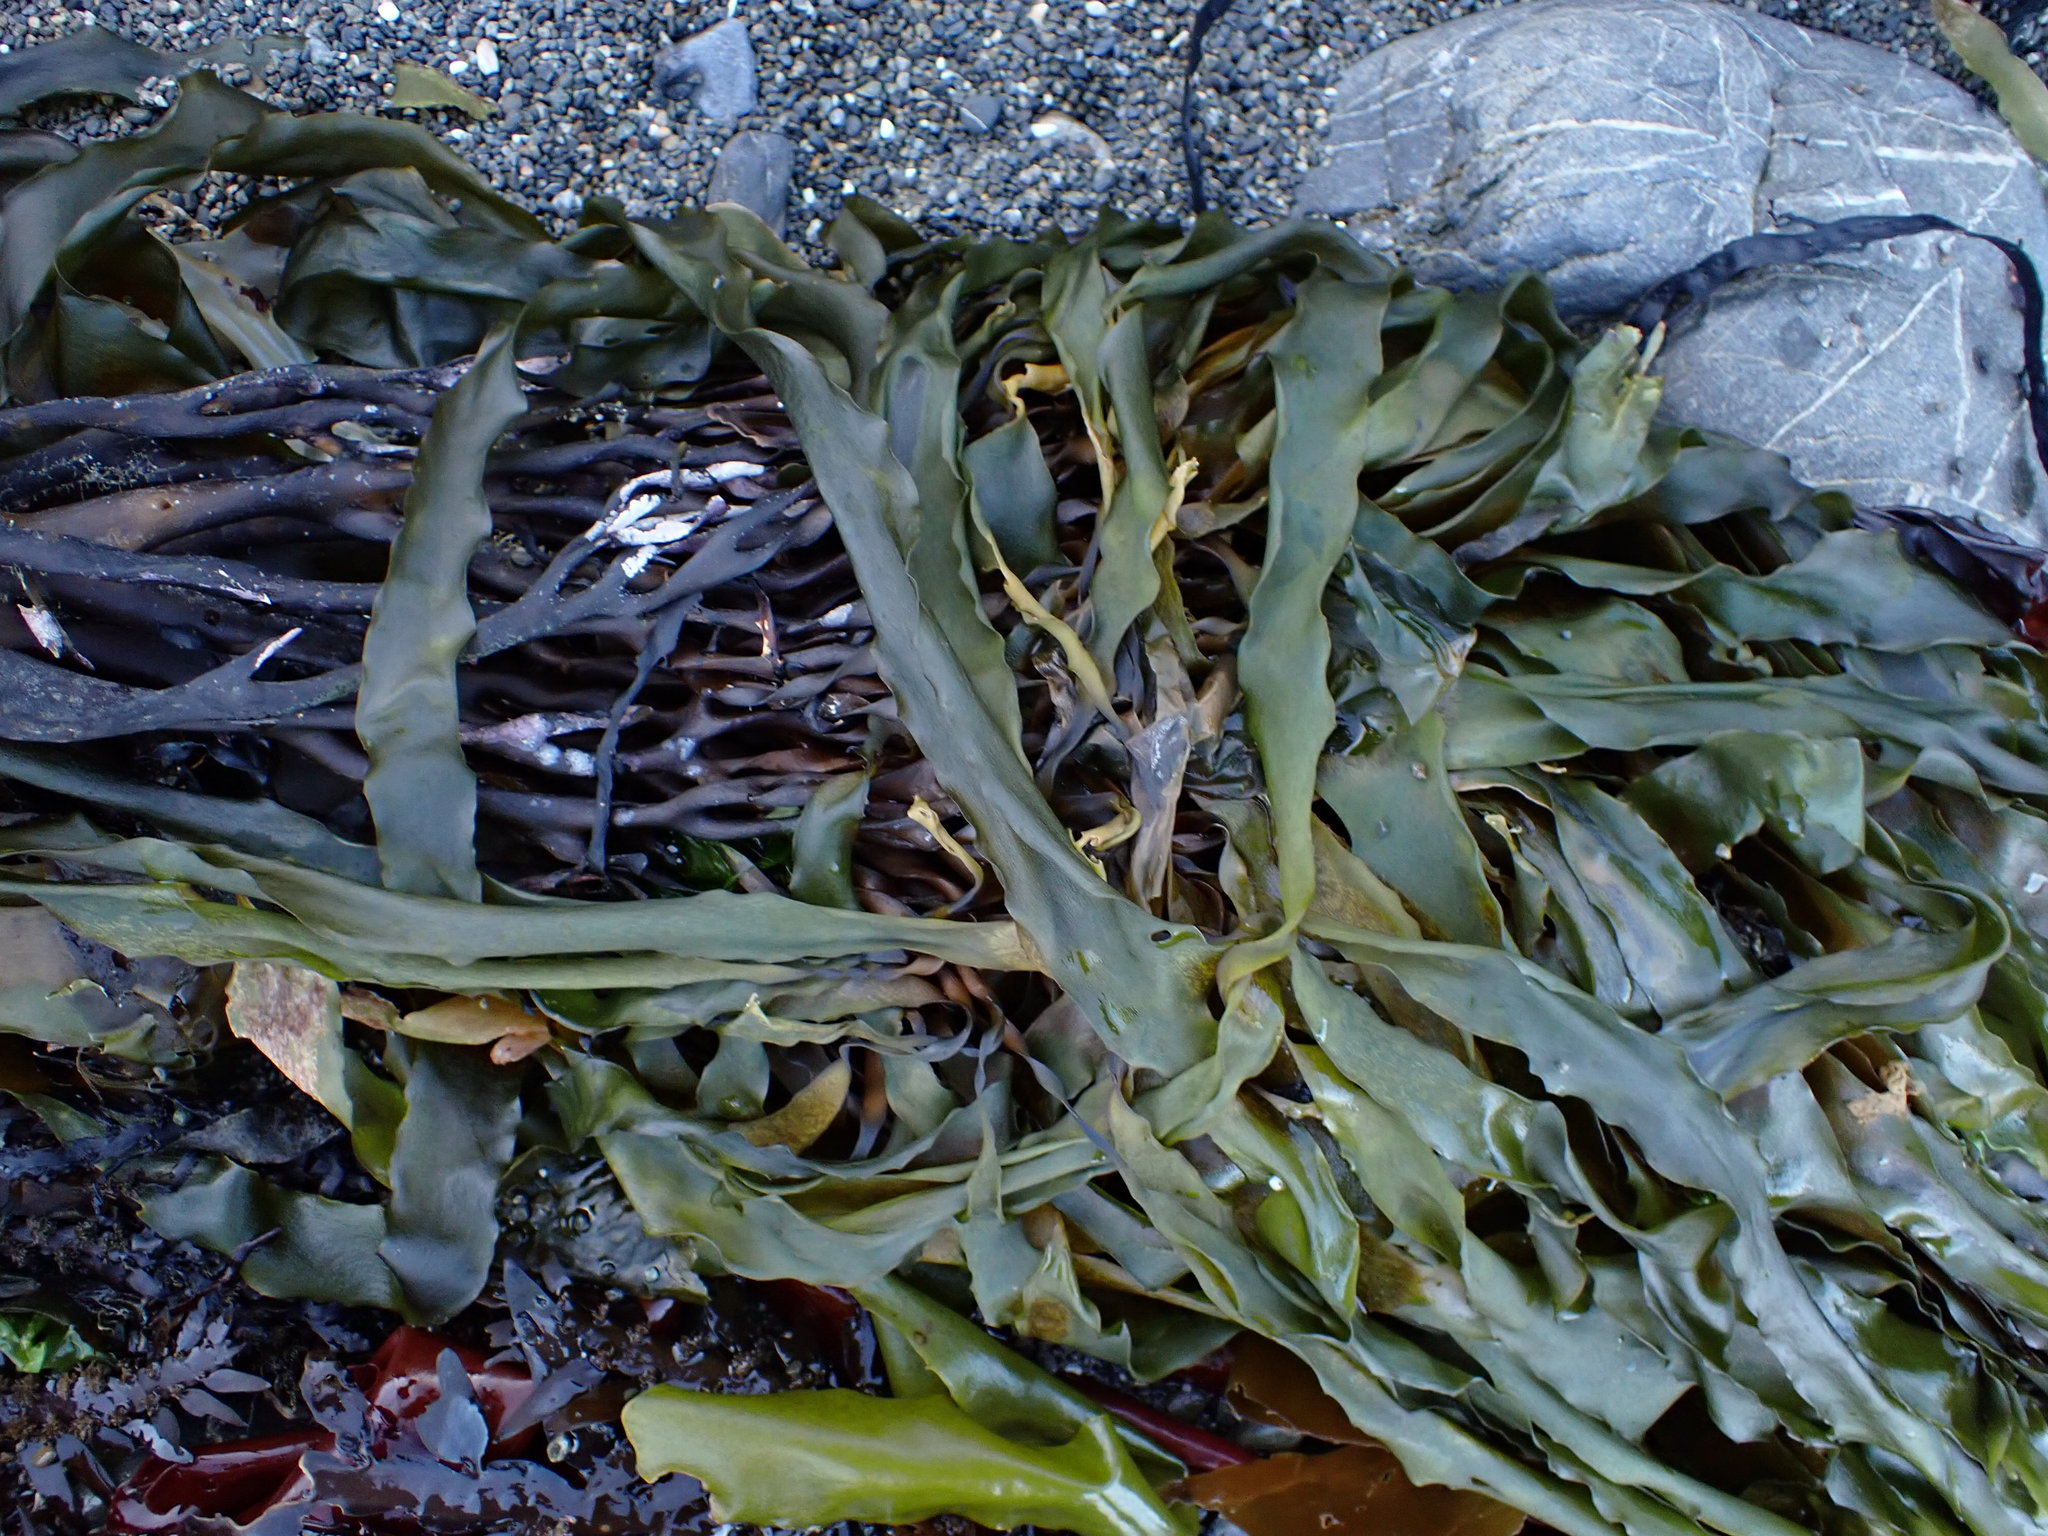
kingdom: Chromista
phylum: Ochrophyta
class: Phaeophyceae
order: Laminariales
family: Lessoniaceae
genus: Lessonia
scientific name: Lessonia variegata
